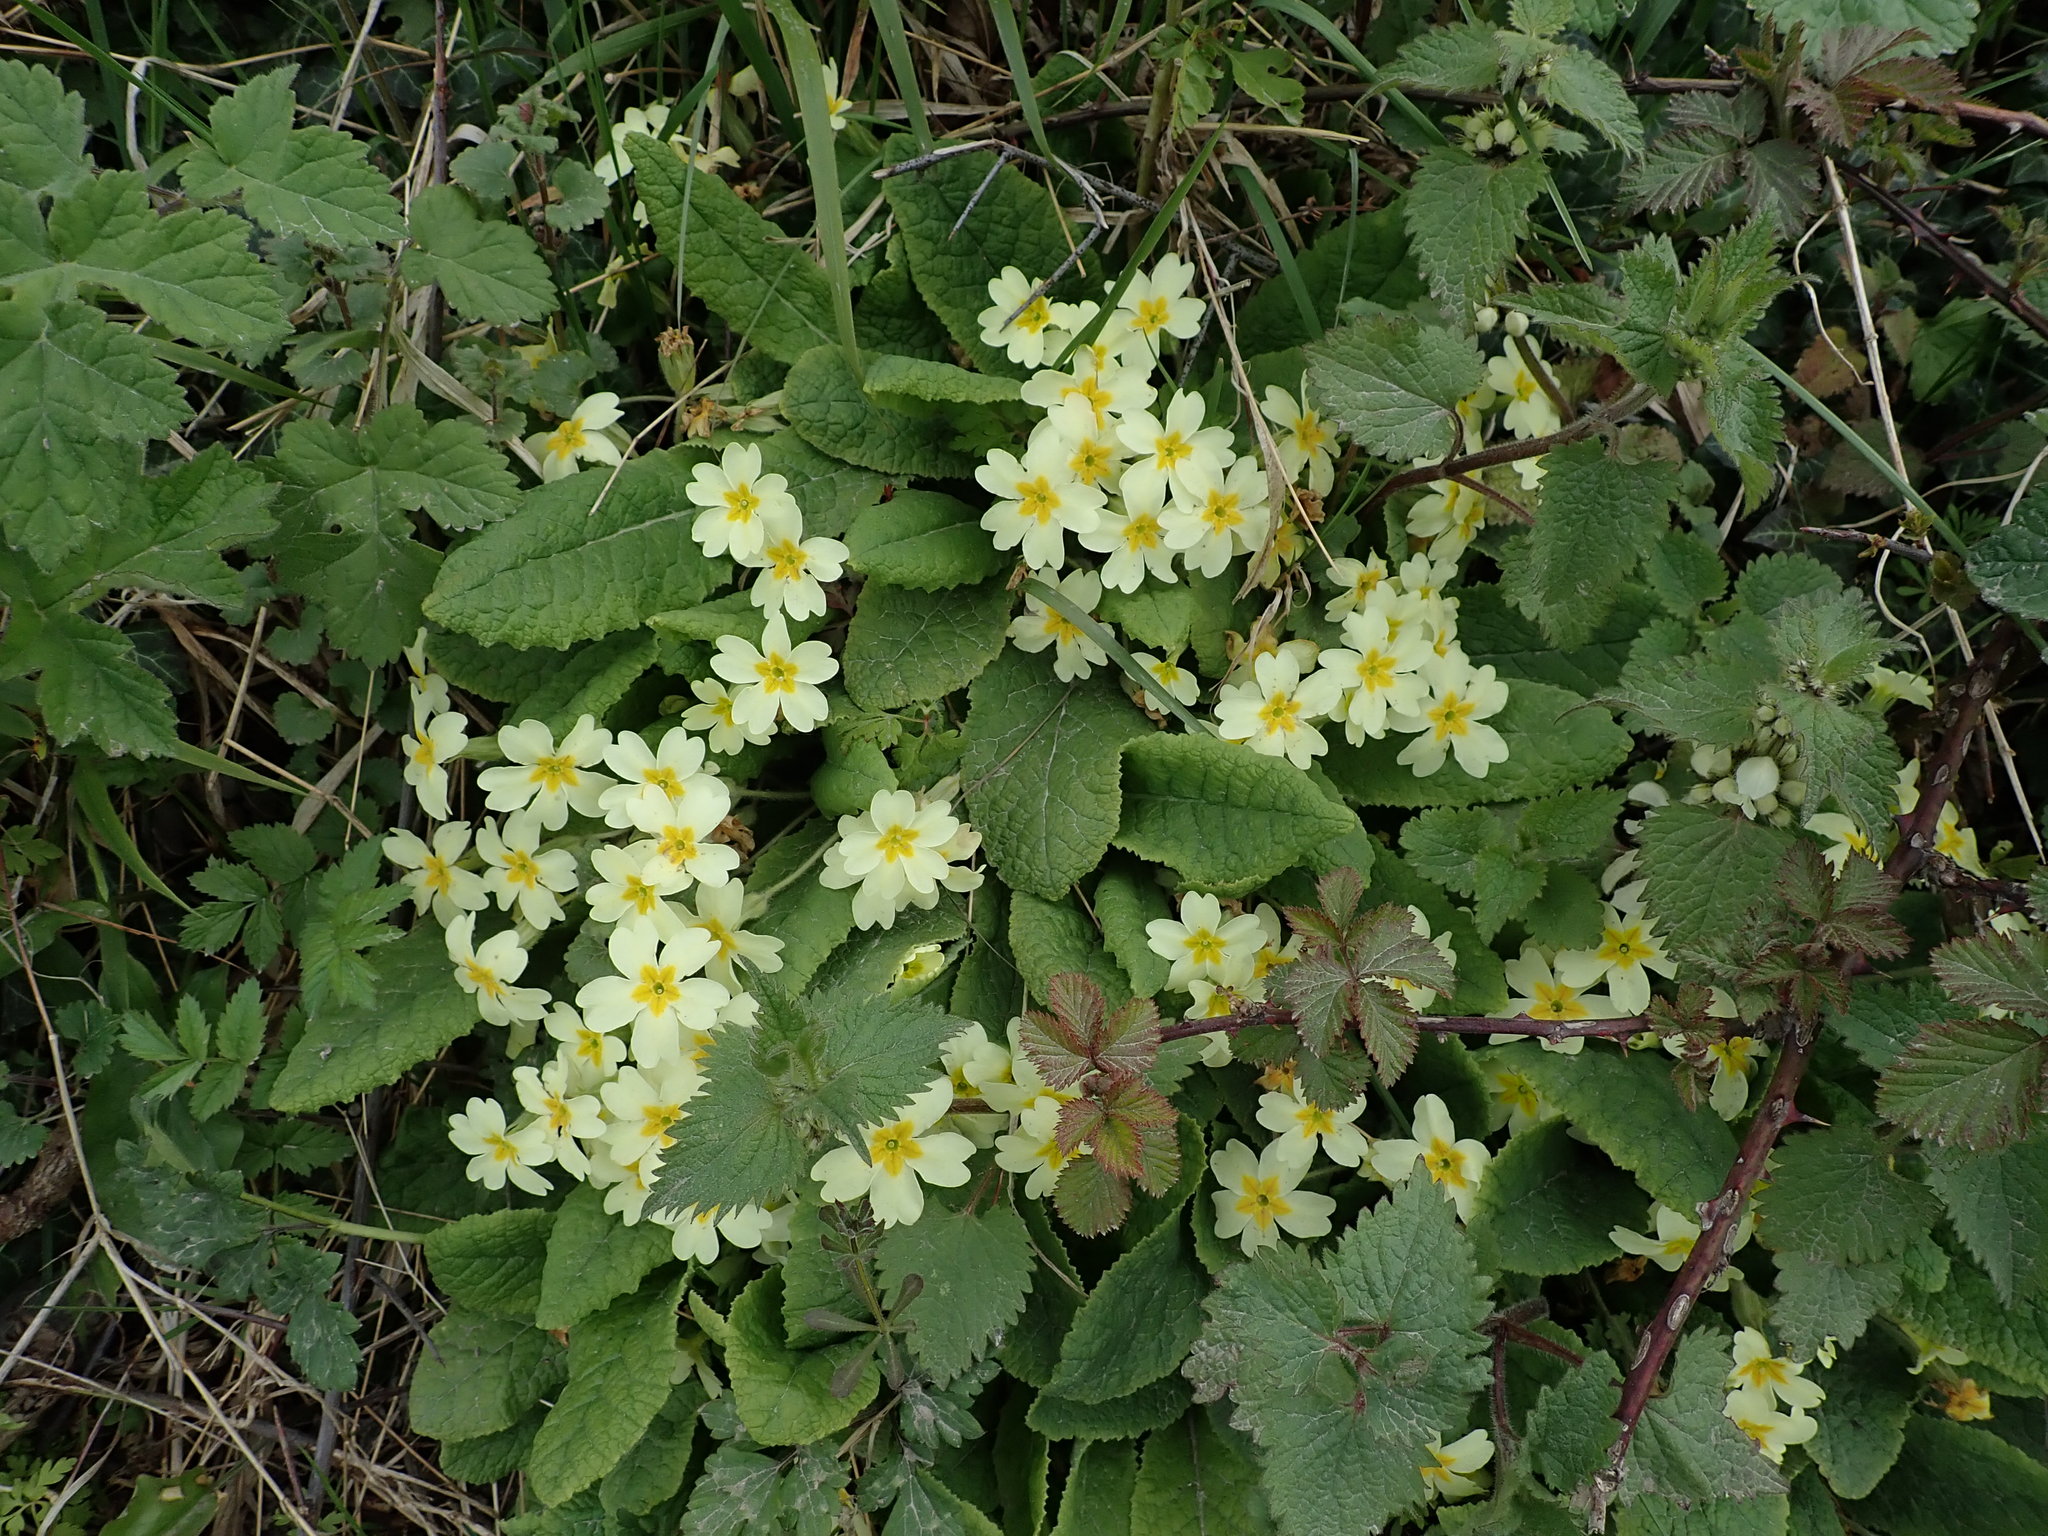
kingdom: Plantae
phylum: Tracheophyta
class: Magnoliopsida
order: Ericales
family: Primulaceae
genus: Primula
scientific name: Primula vulgaris
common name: Primrose
